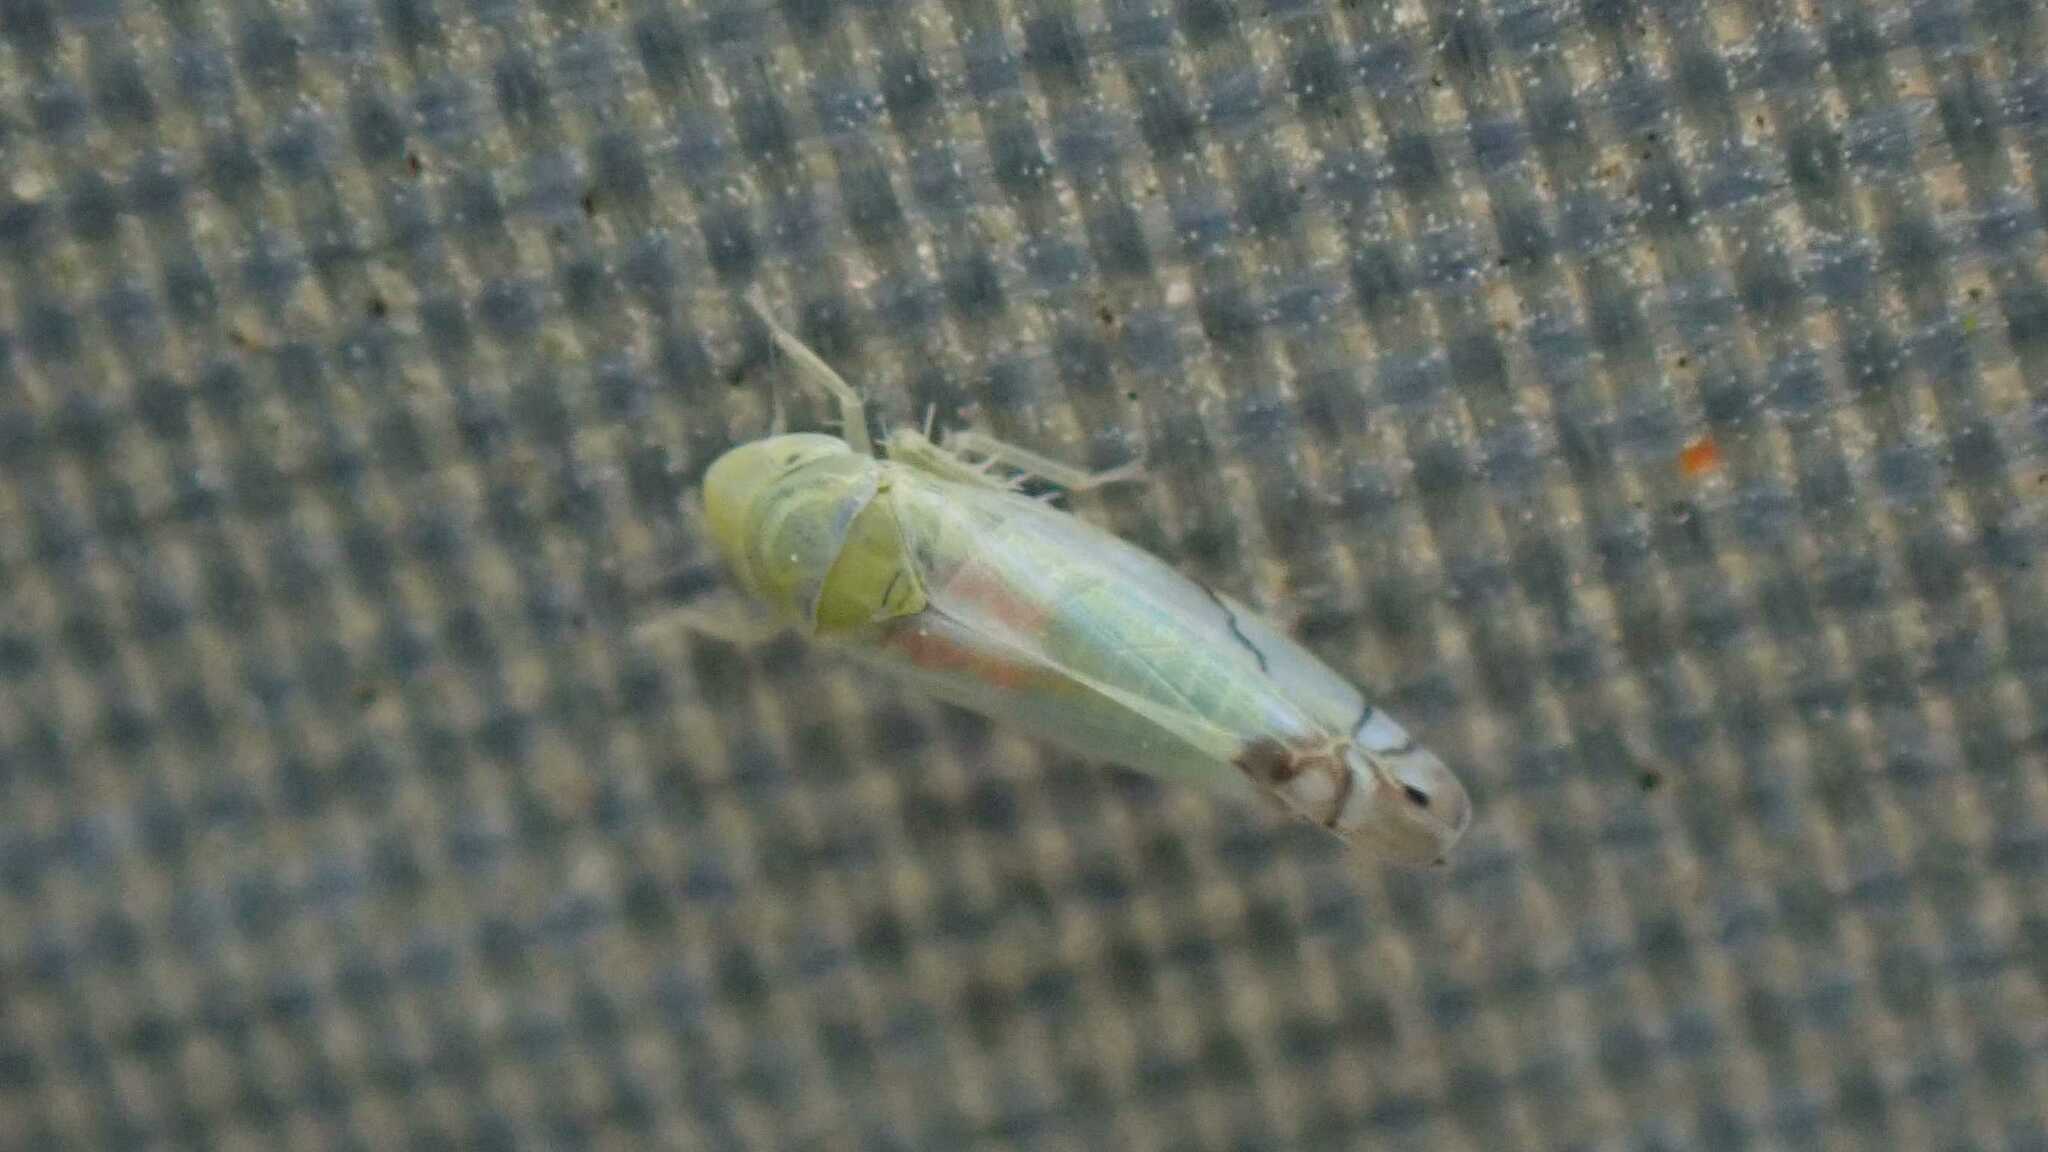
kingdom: Animalia
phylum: Arthropoda
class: Insecta
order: Hemiptera
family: Cicadellidae
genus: Zyginella
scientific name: Zyginella pulchra
